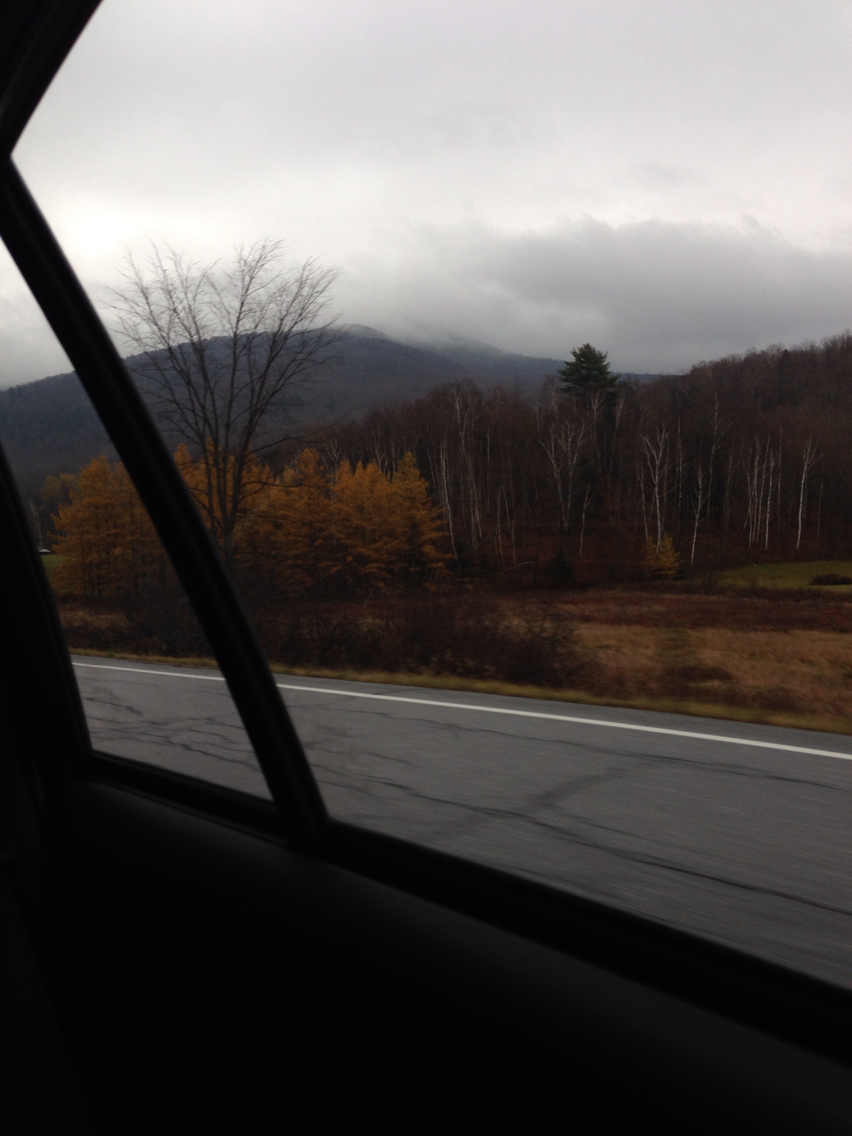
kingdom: Plantae
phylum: Tracheophyta
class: Pinopsida
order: Pinales
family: Pinaceae
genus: Larix
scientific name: Larix laricina
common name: American larch
